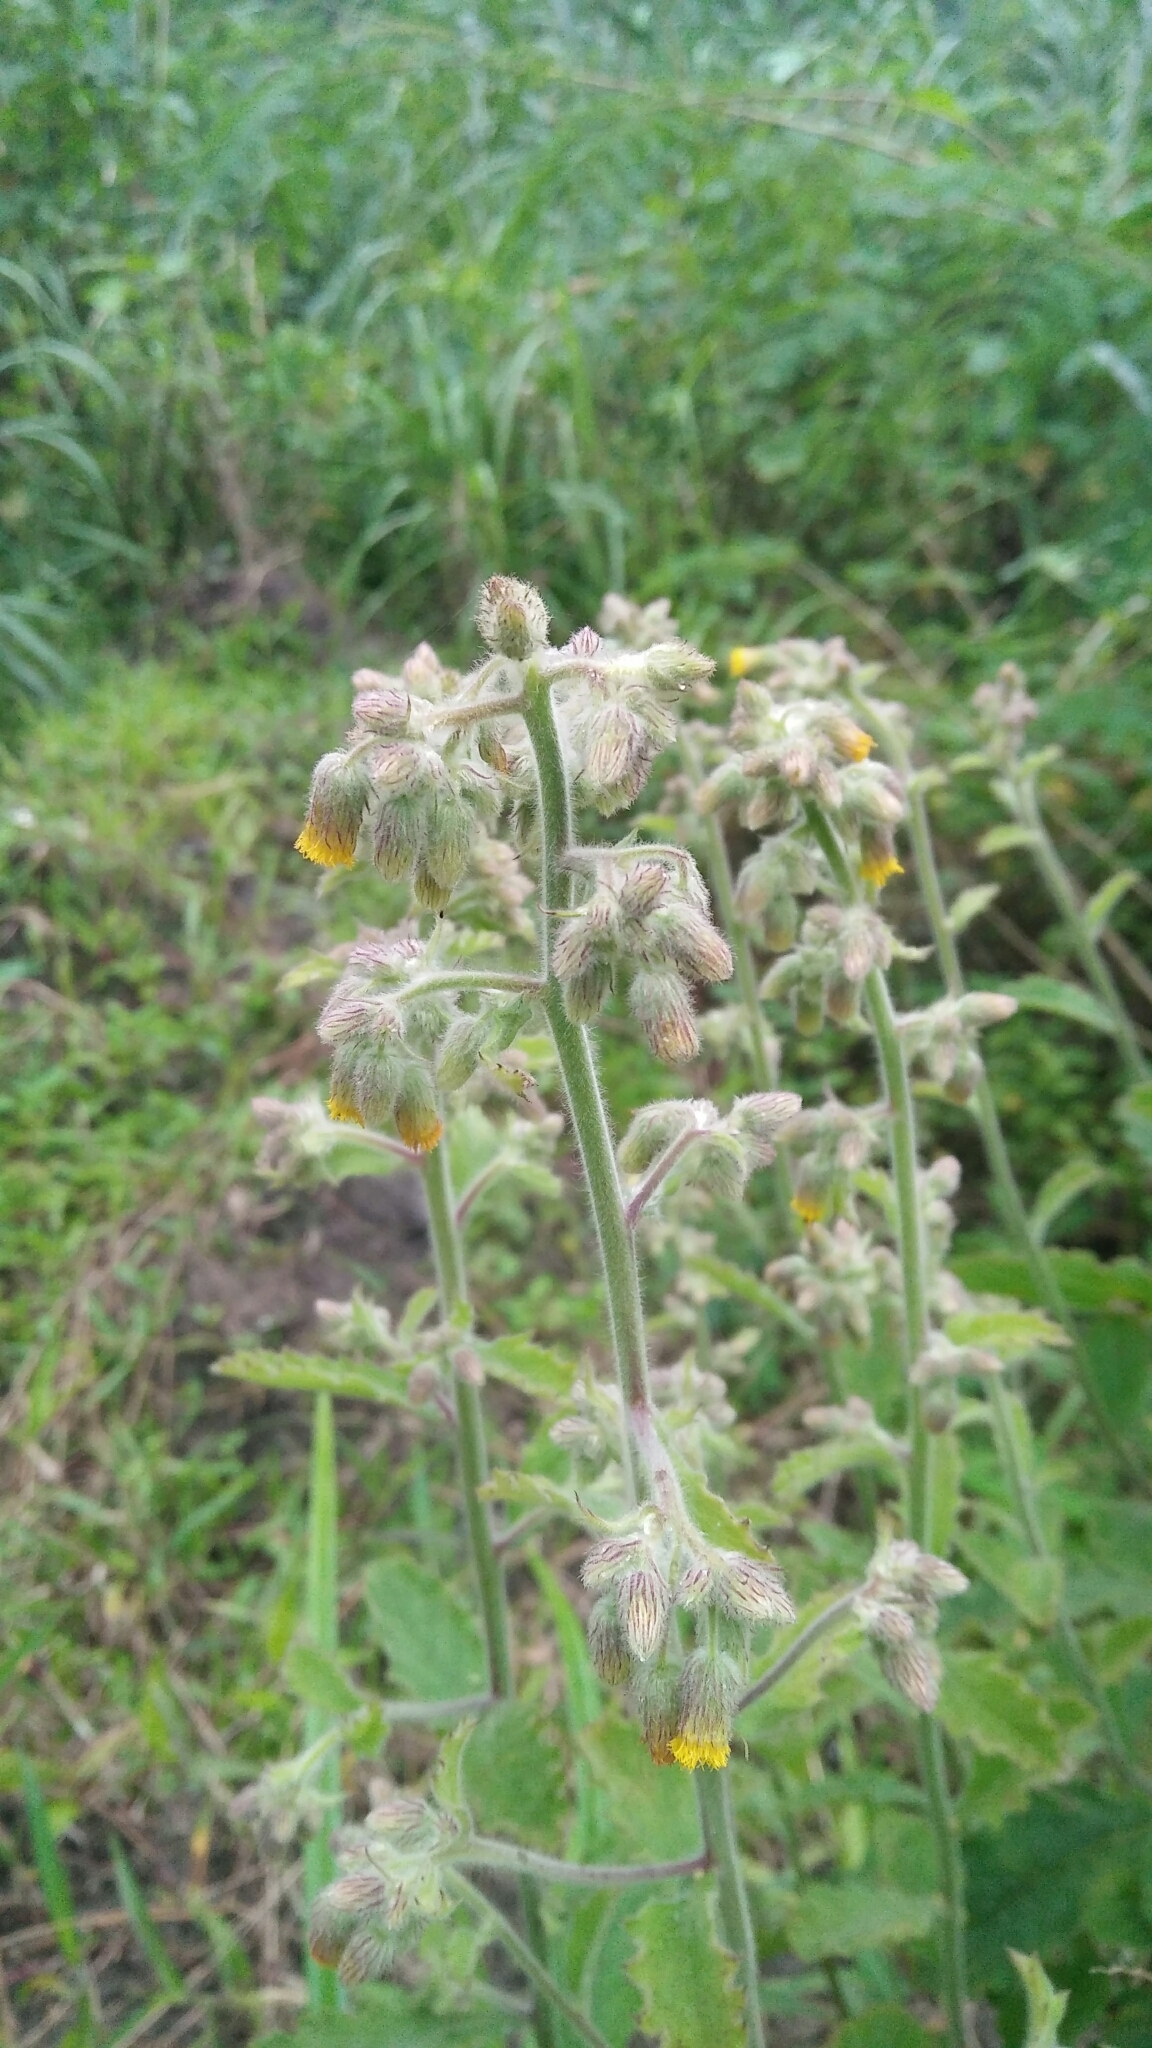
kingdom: Plantae
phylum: Tracheophyta
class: Magnoliopsida
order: Asterales
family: Asteraceae
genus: Blumea
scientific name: Blumea oblongifolia
